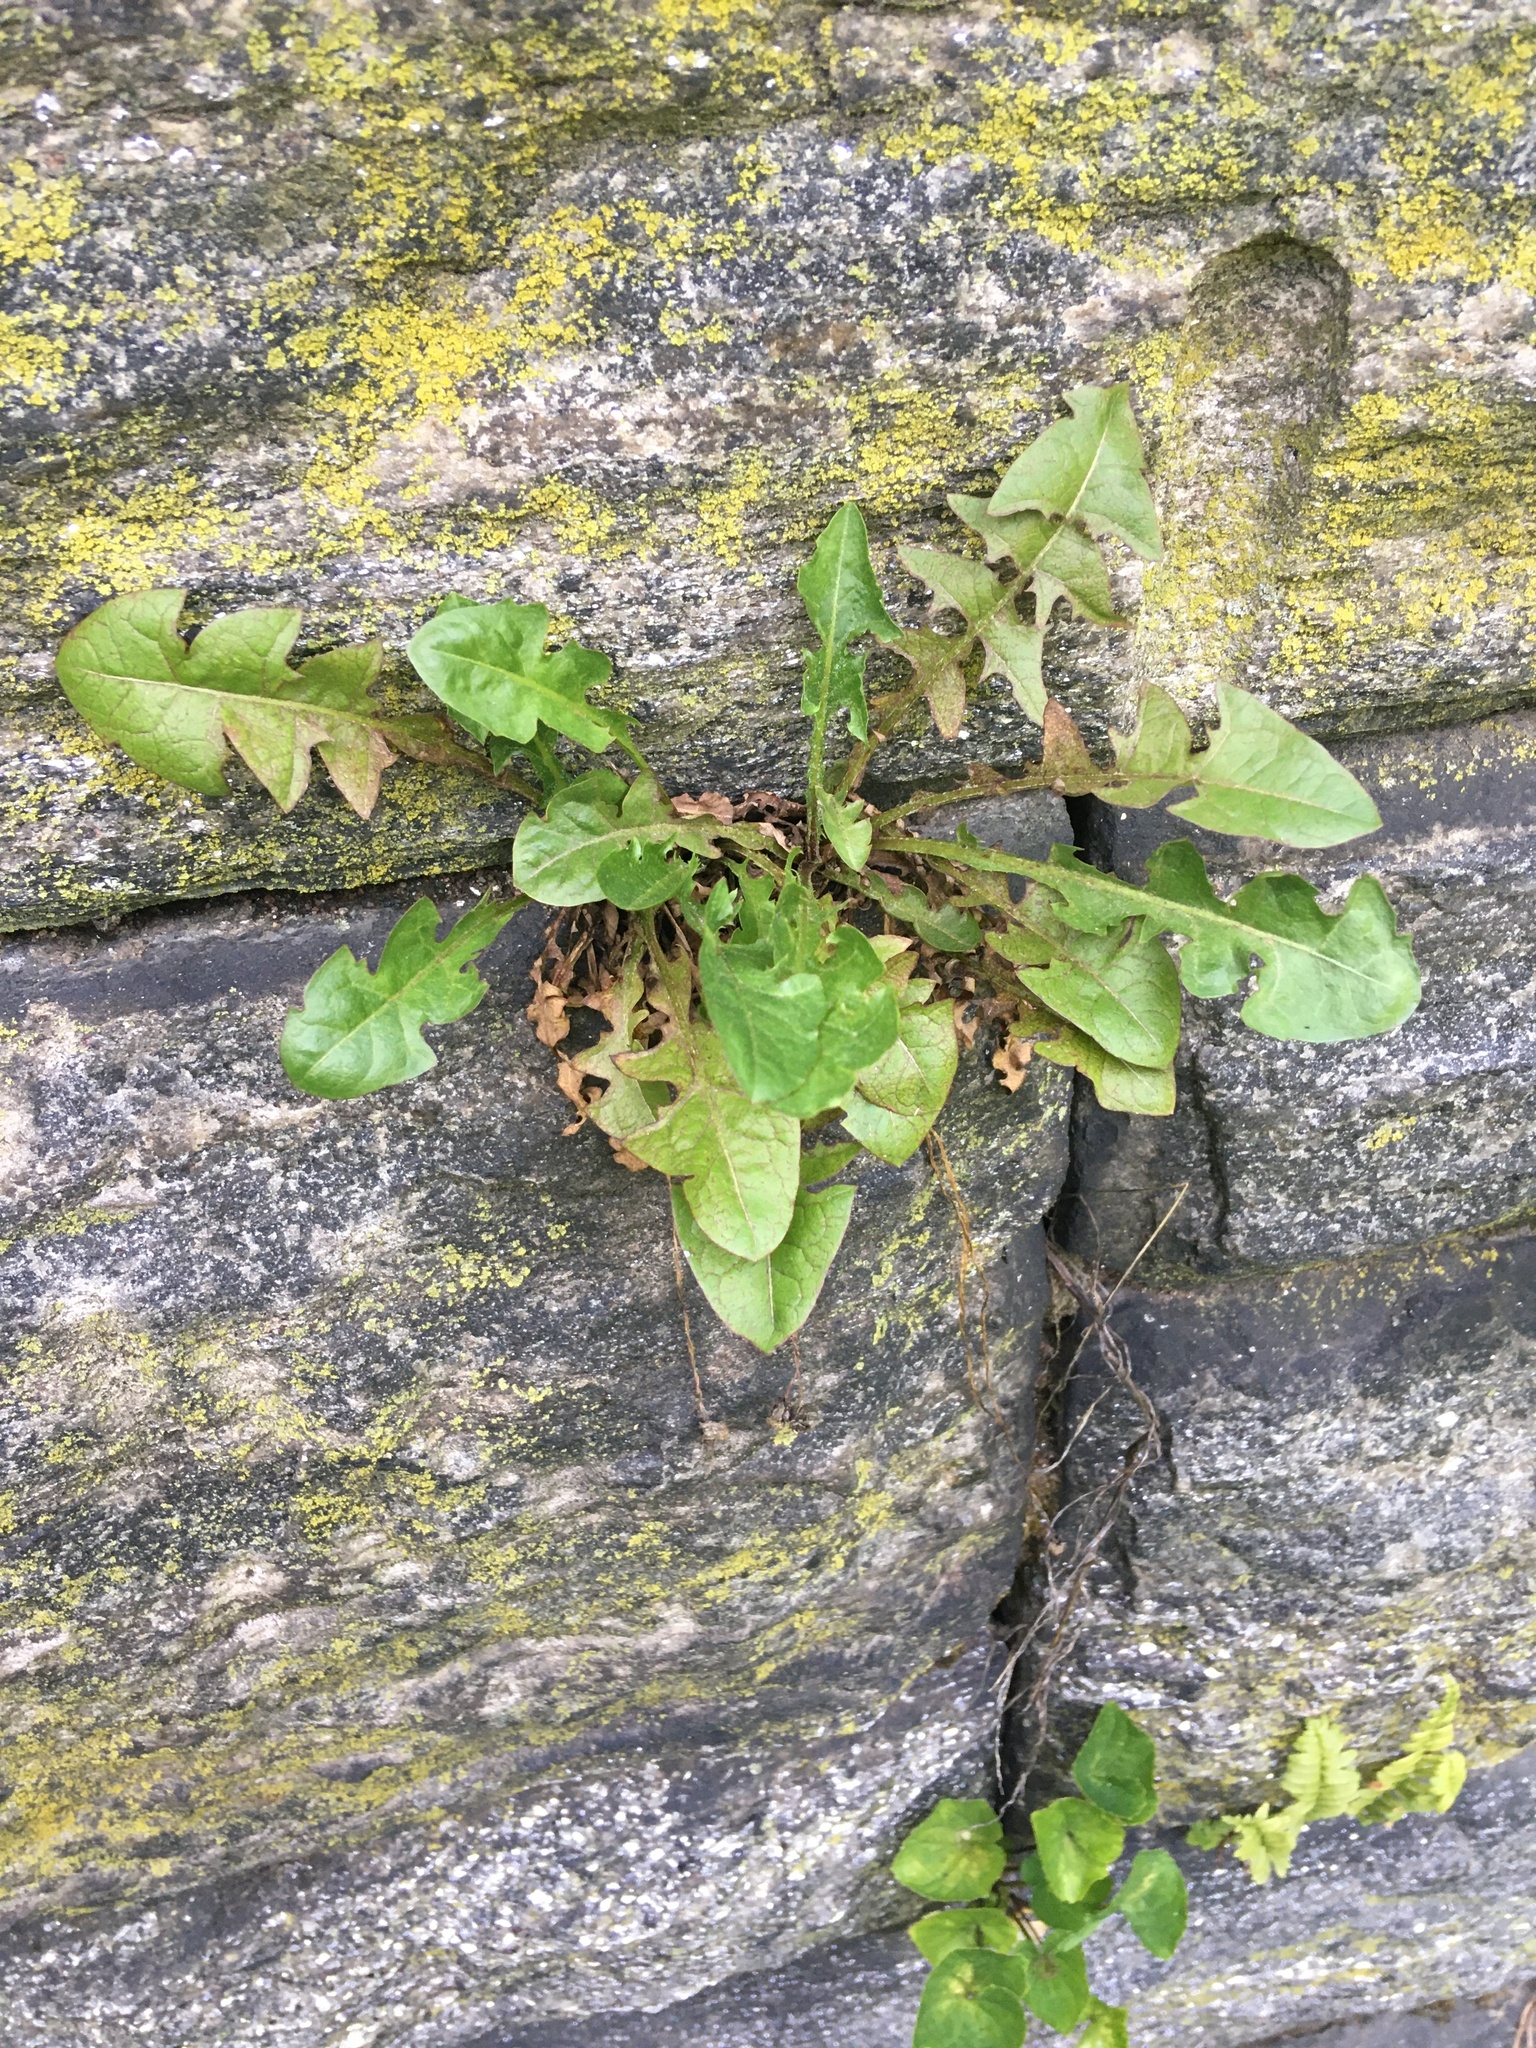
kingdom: Plantae
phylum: Tracheophyta
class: Magnoliopsida
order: Asterales
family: Asteraceae
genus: Taraxacum
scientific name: Taraxacum officinale
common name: Common dandelion
